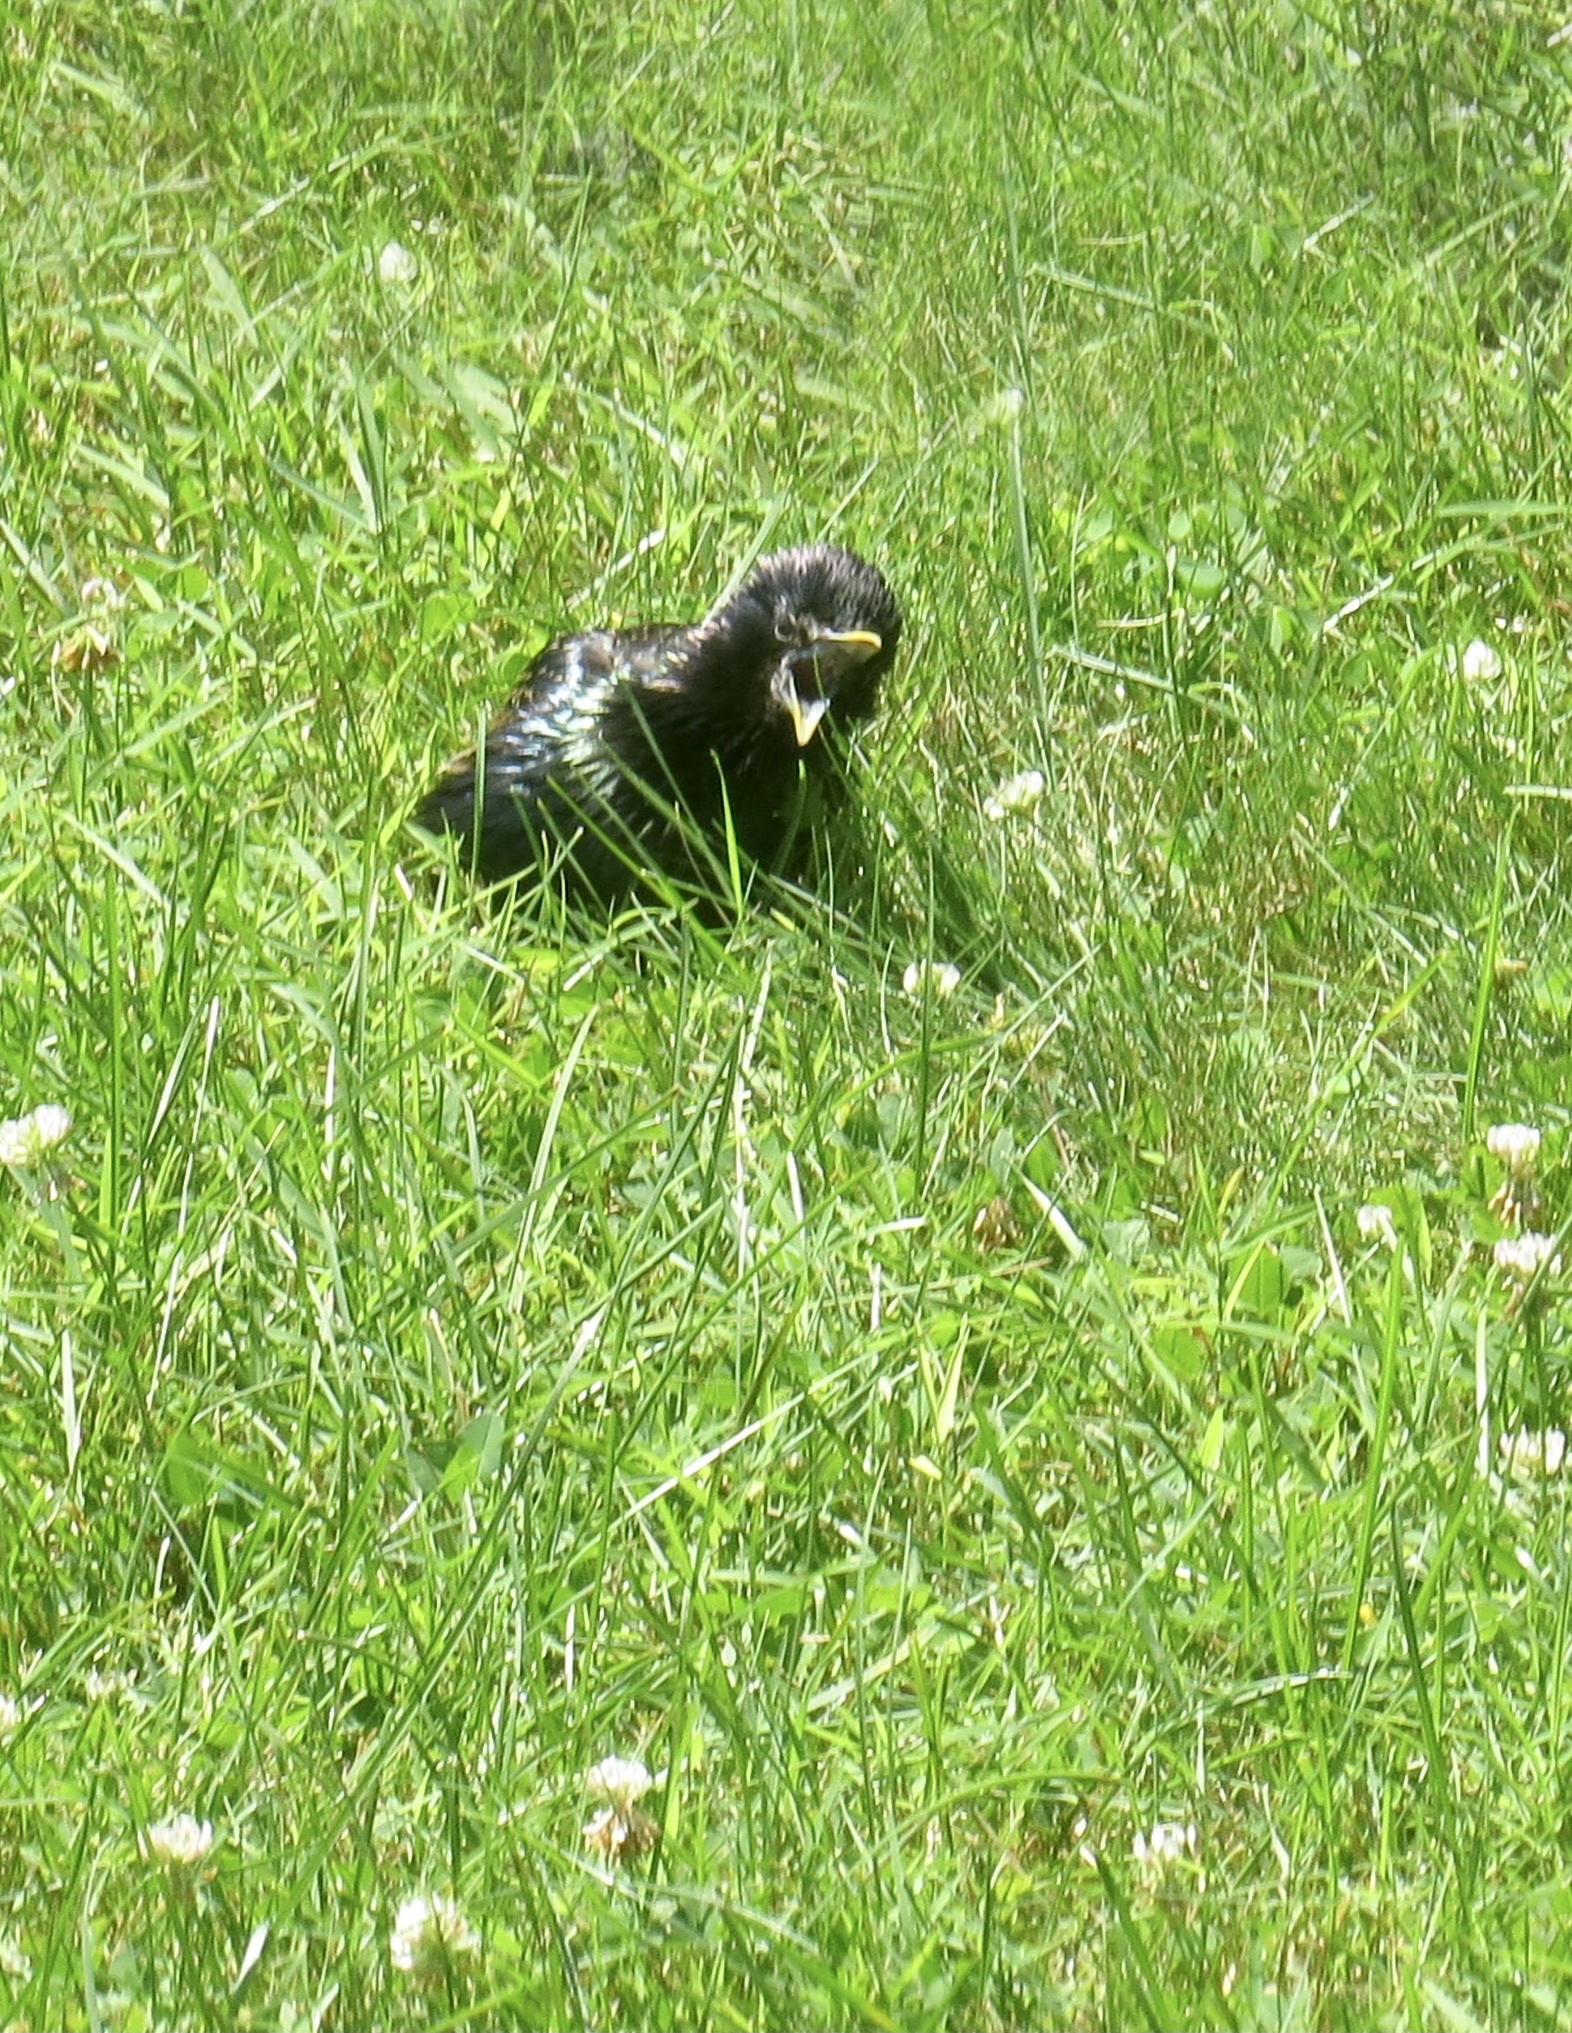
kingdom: Animalia
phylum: Chordata
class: Aves
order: Passeriformes
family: Sturnidae
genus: Sturnus
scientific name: Sturnus vulgaris
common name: Common starling
